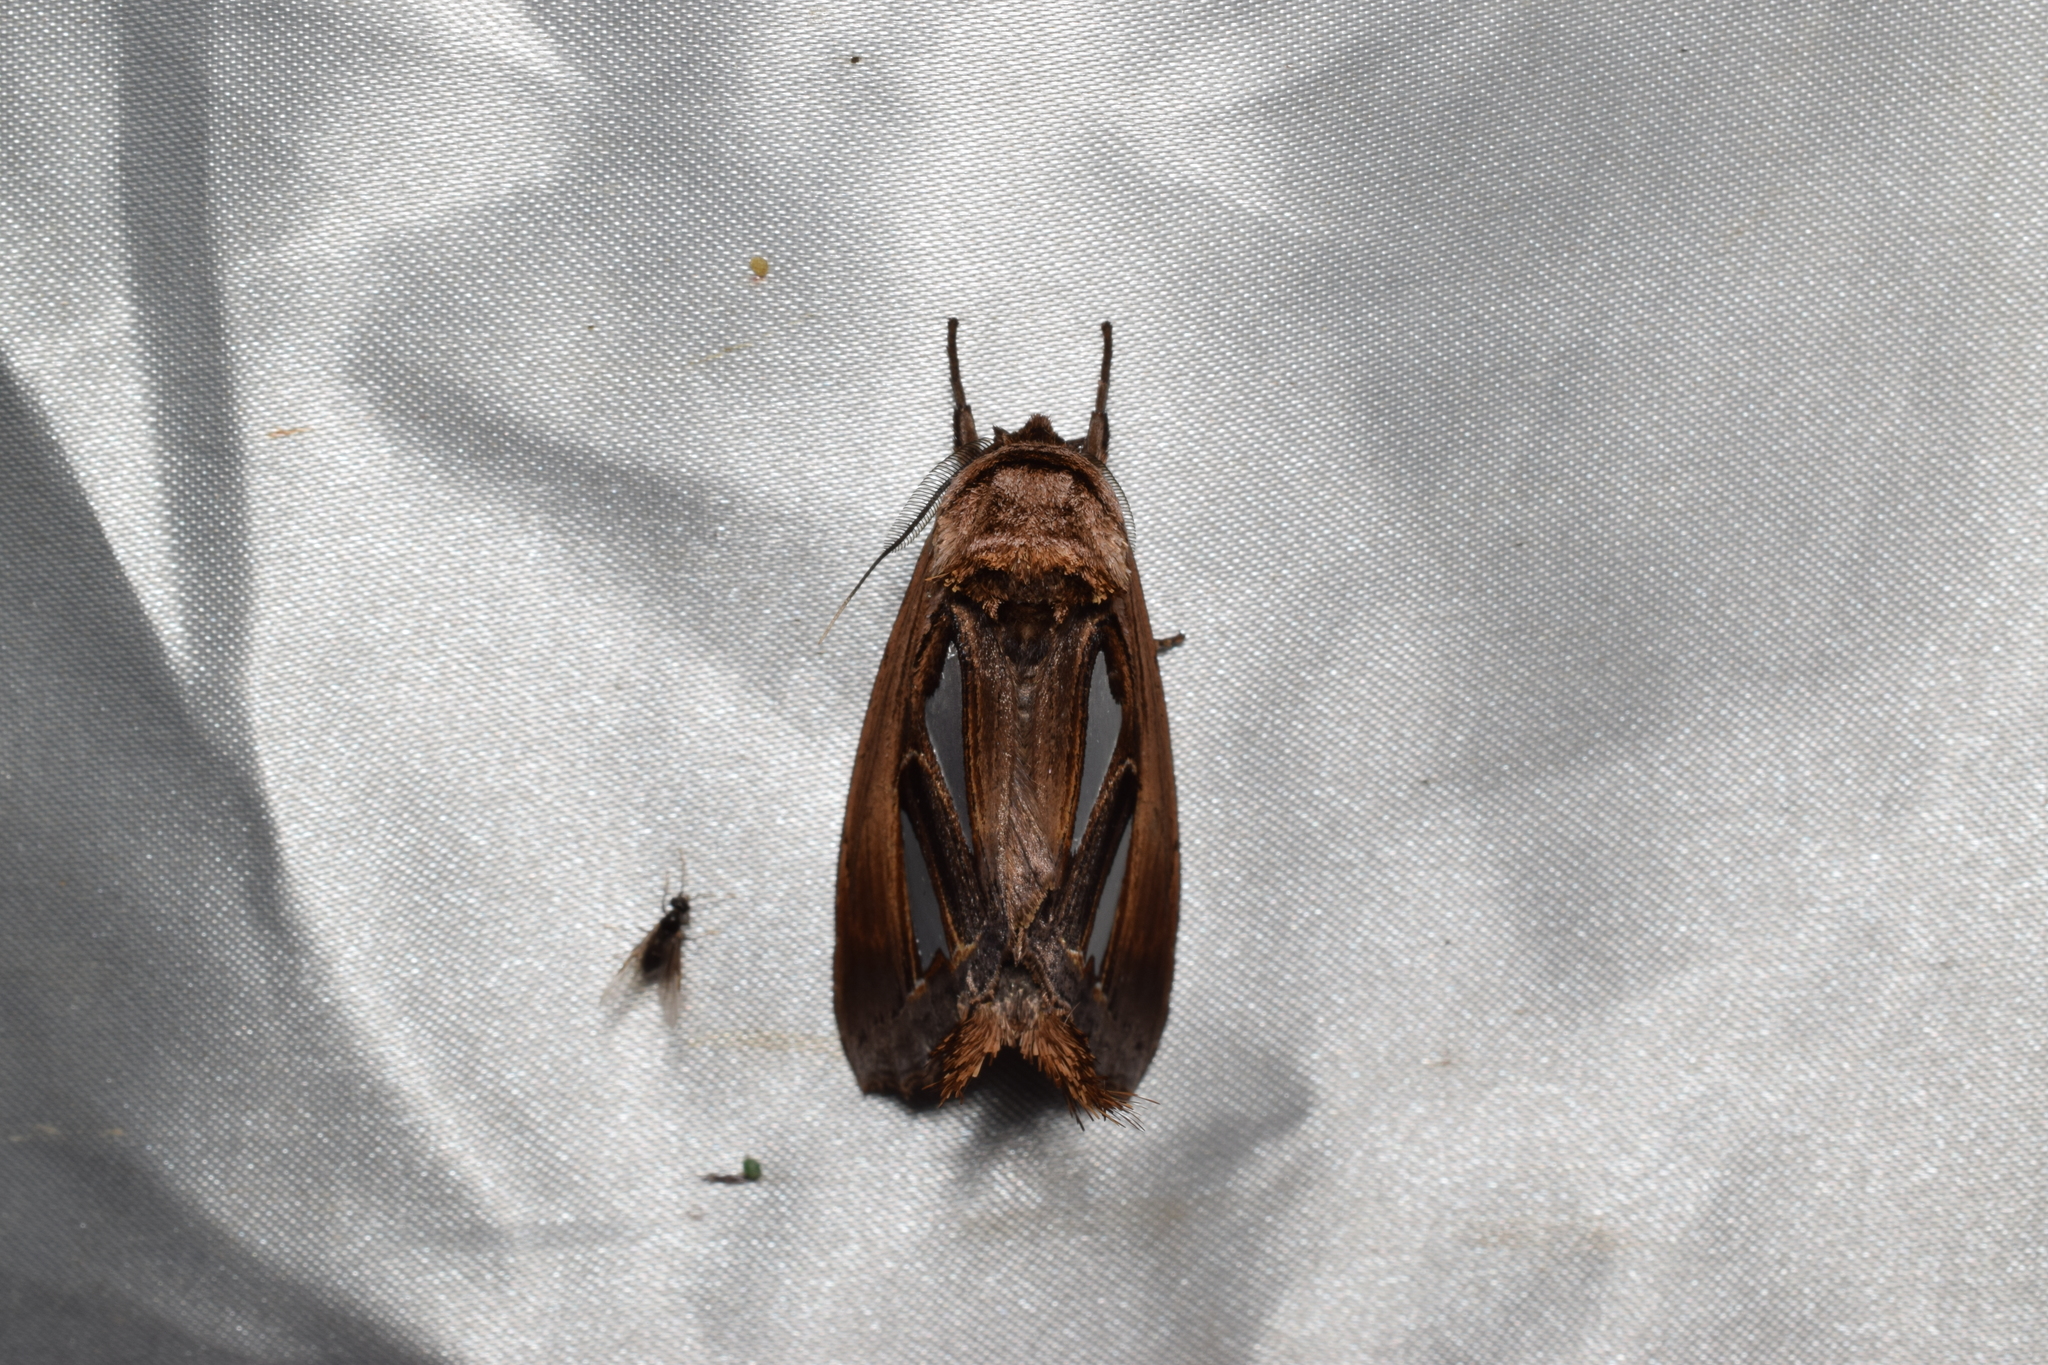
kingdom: Animalia
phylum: Arthropoda
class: Insecta
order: Lepidoptera
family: Notodontidae
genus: Tarsolepis
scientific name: Tarsolepis japonica
